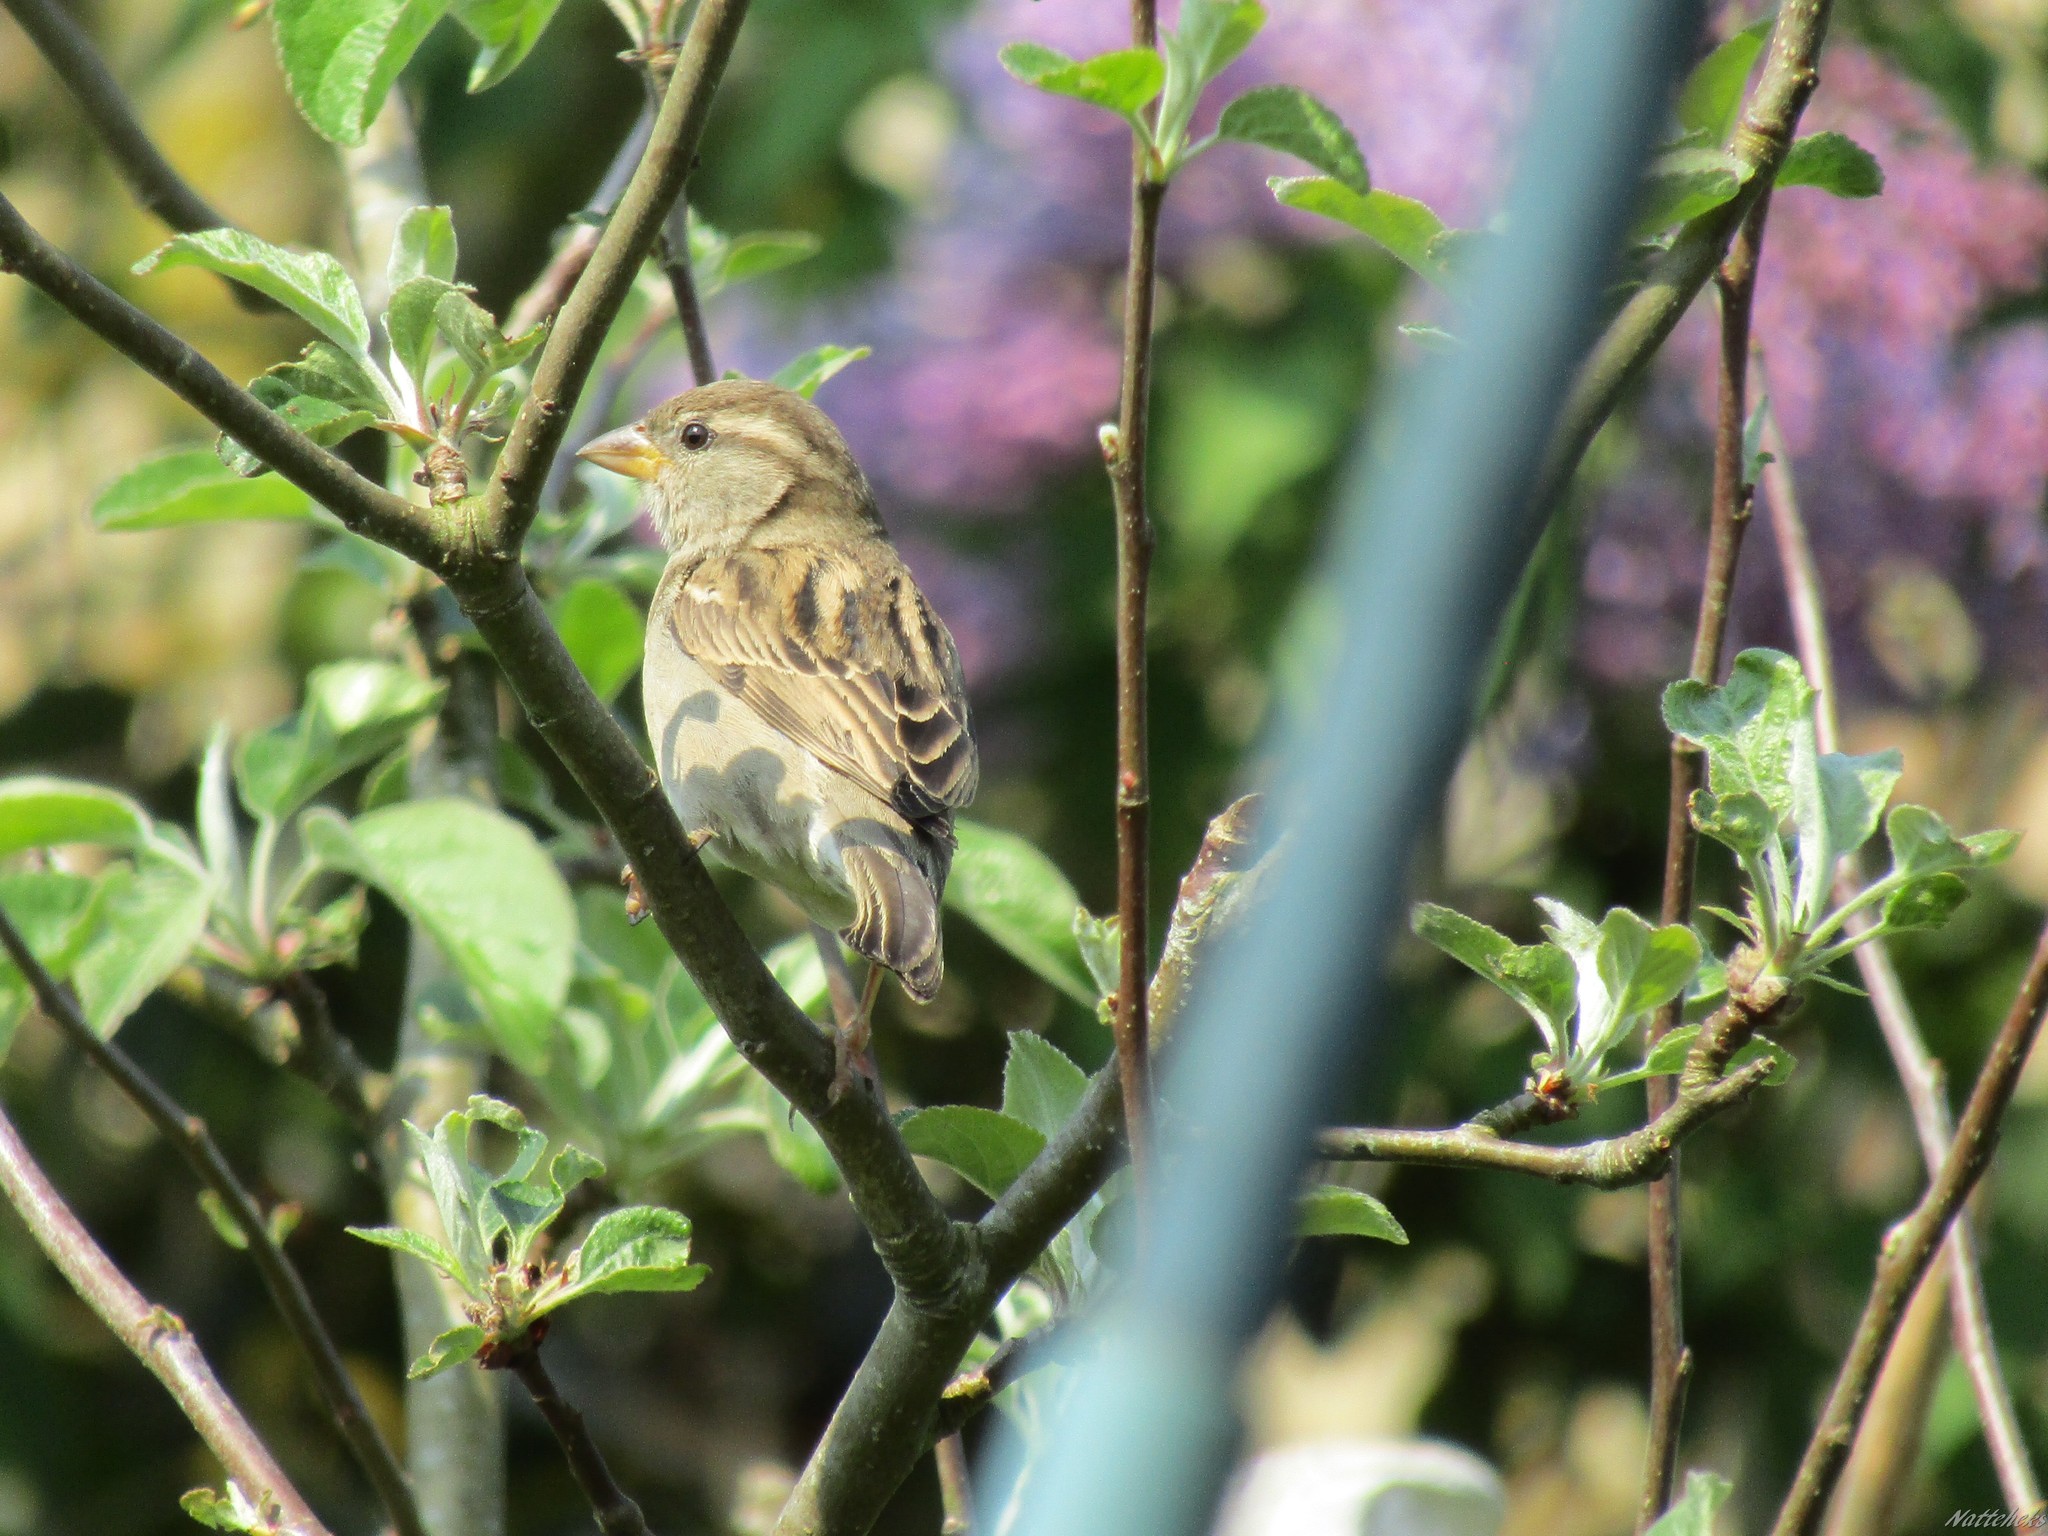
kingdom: Animalia
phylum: Chordata
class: Aves
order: Passeriformes
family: Passeridae
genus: Passer
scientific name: Passer domesticus
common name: House sparrow
